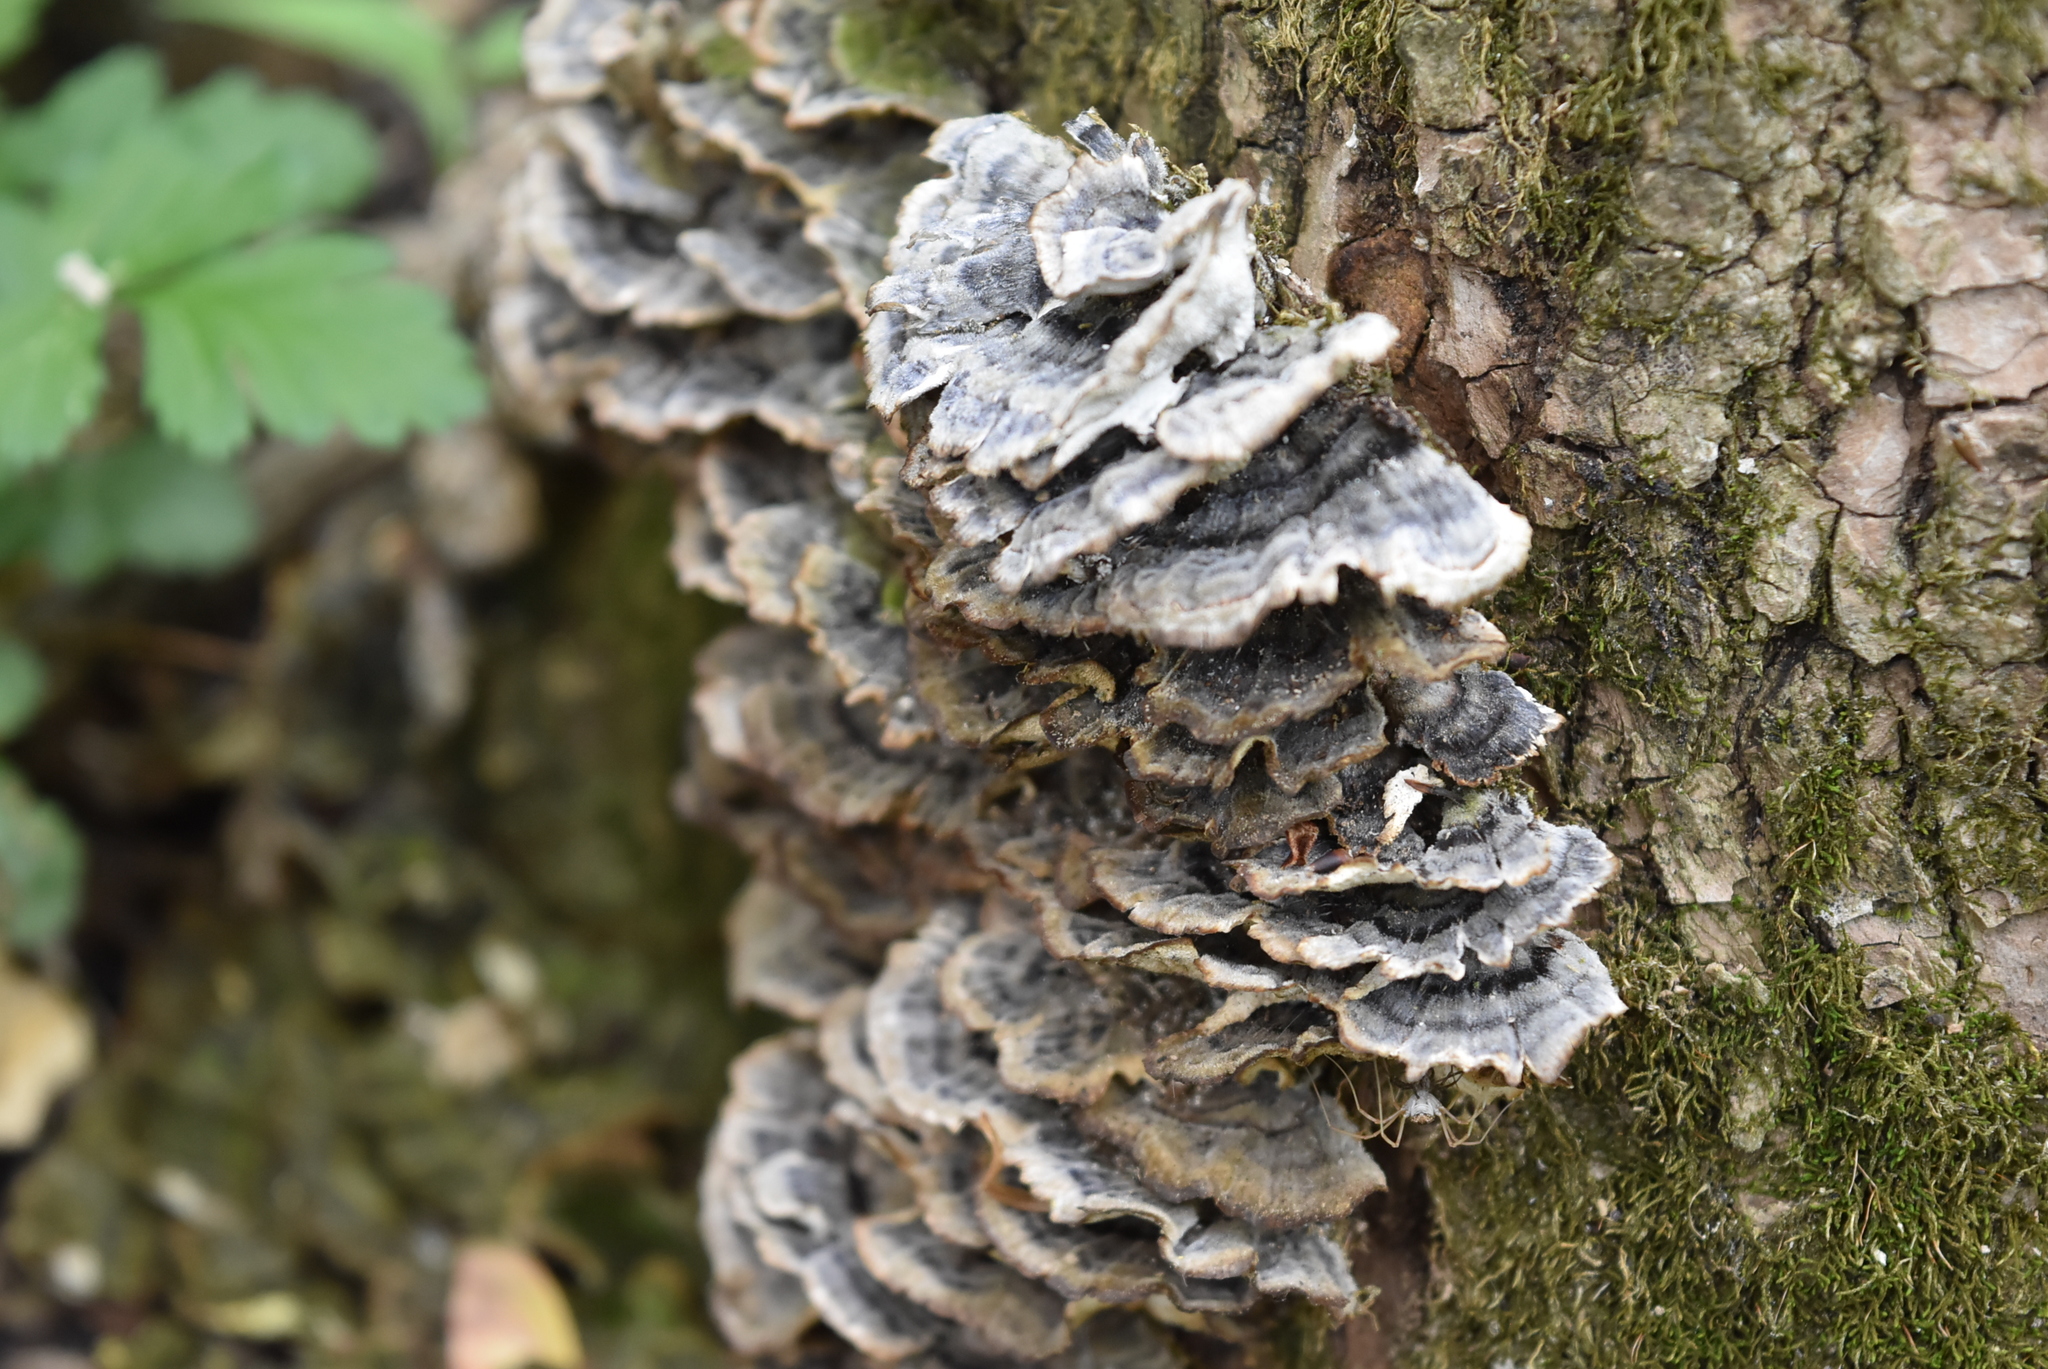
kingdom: Fungi
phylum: Basidiomycota
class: Agaricomycetes
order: Polyporales
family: Polyporaceae
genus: Trametes
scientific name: Trametes versicolor
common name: Turkeytail
